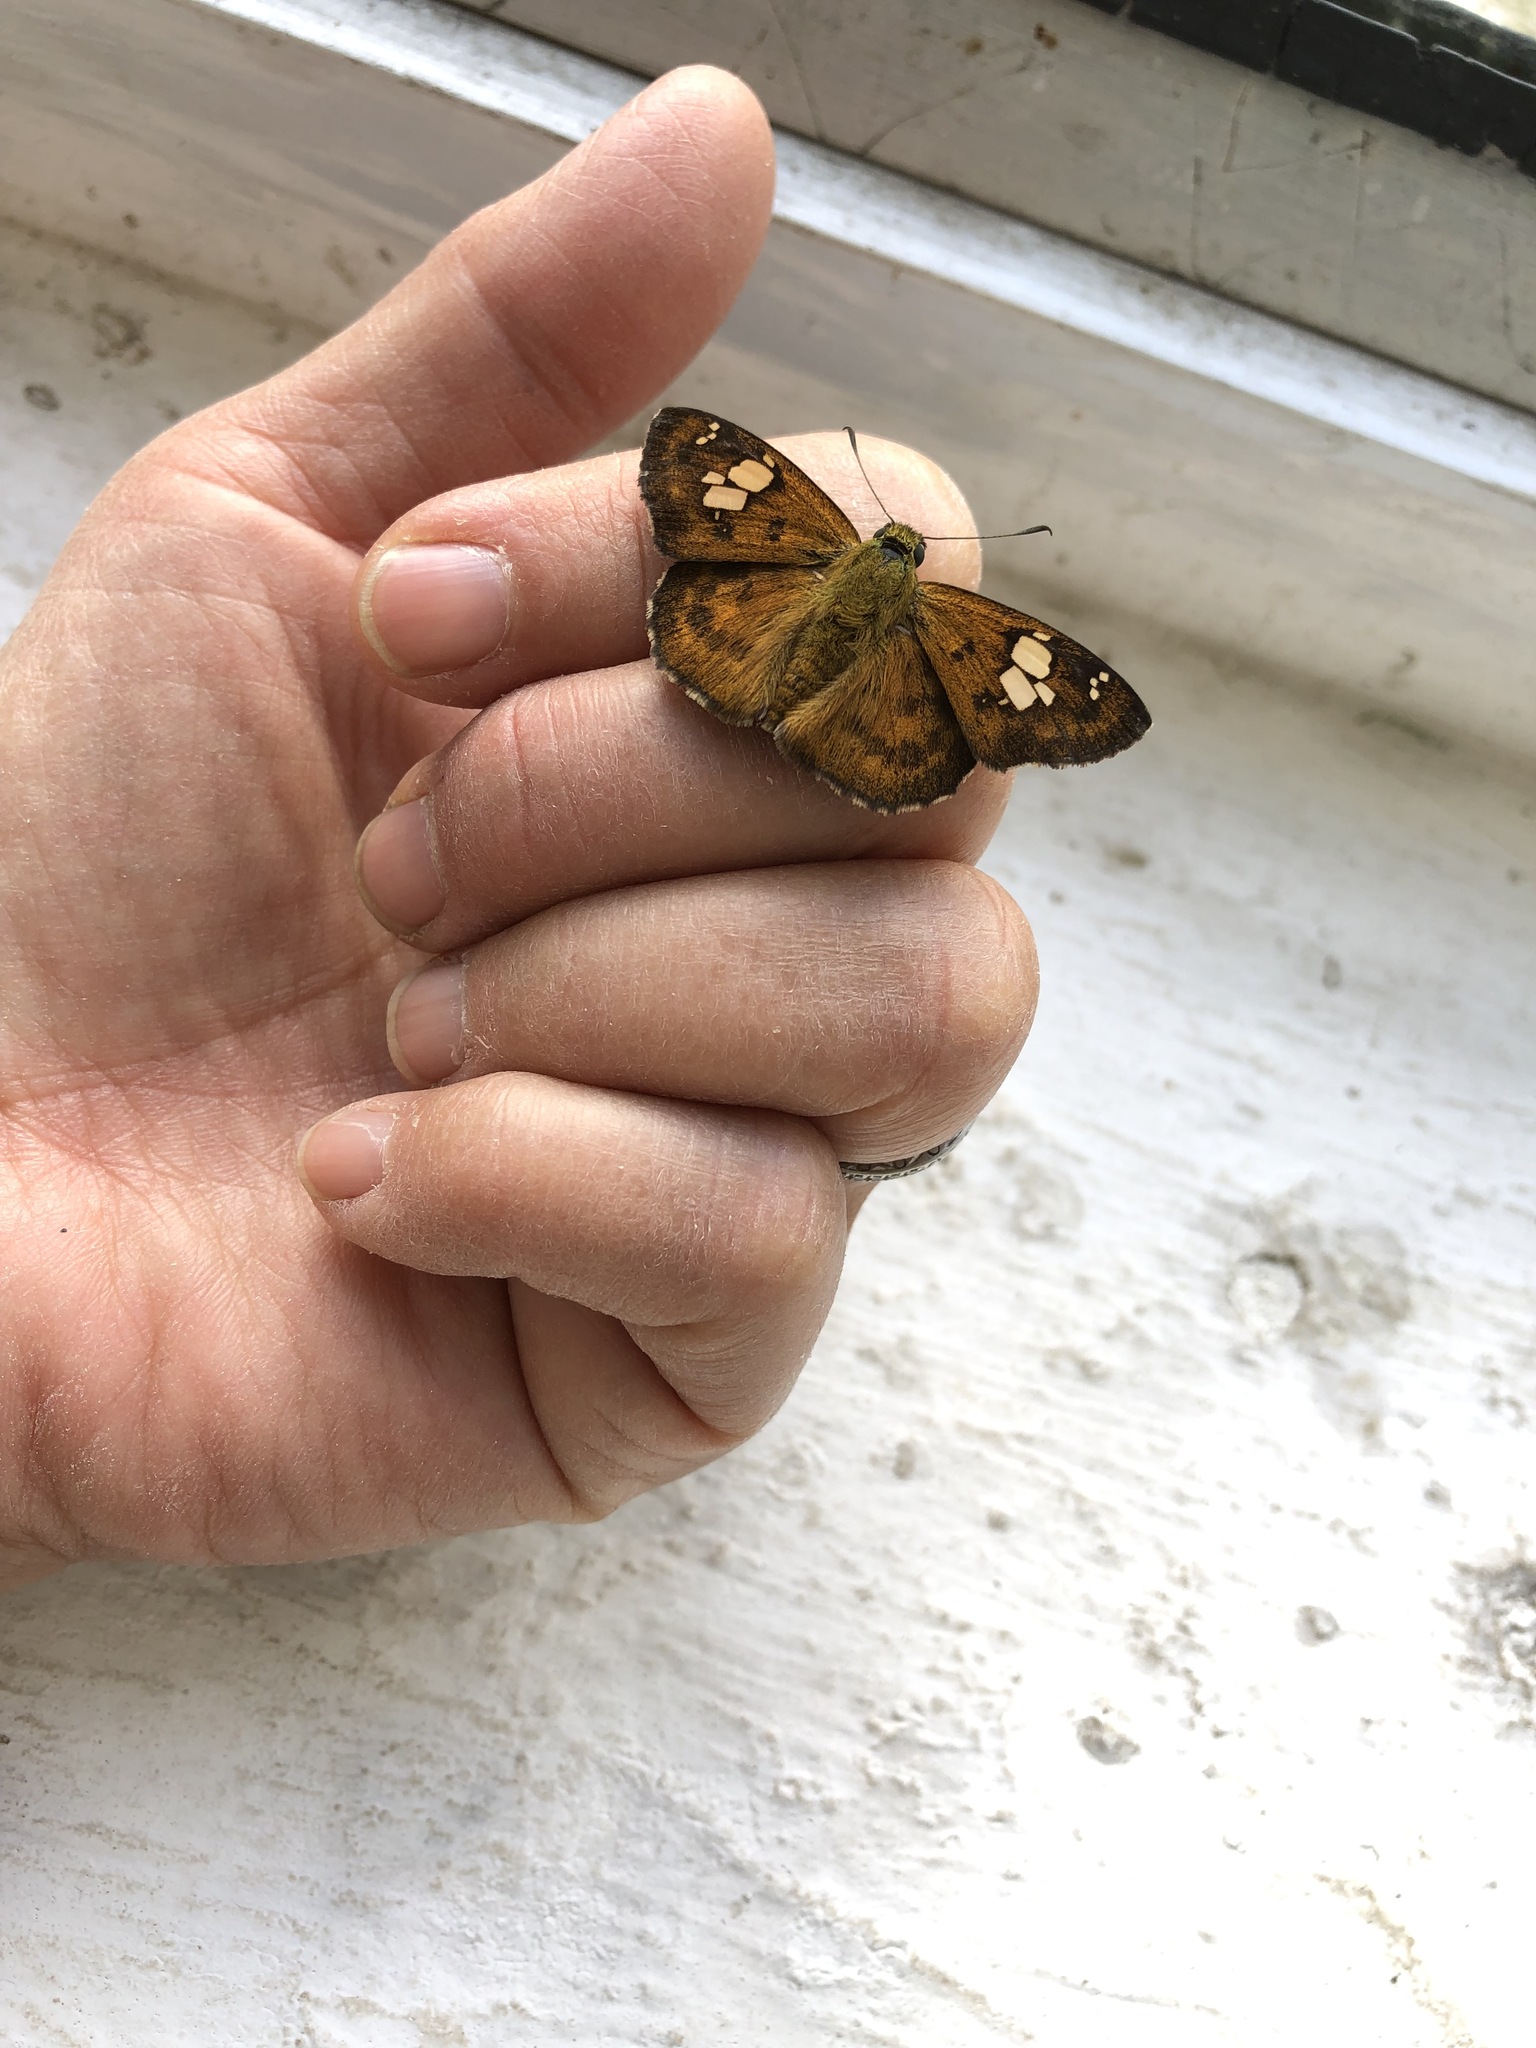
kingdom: Animalia
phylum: Arthropoda
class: Insecta
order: Lepidoptera
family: Hesperiidae
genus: Pseudocoladenia
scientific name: Pseudocoladenia fabia
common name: Fulvous pied flat
